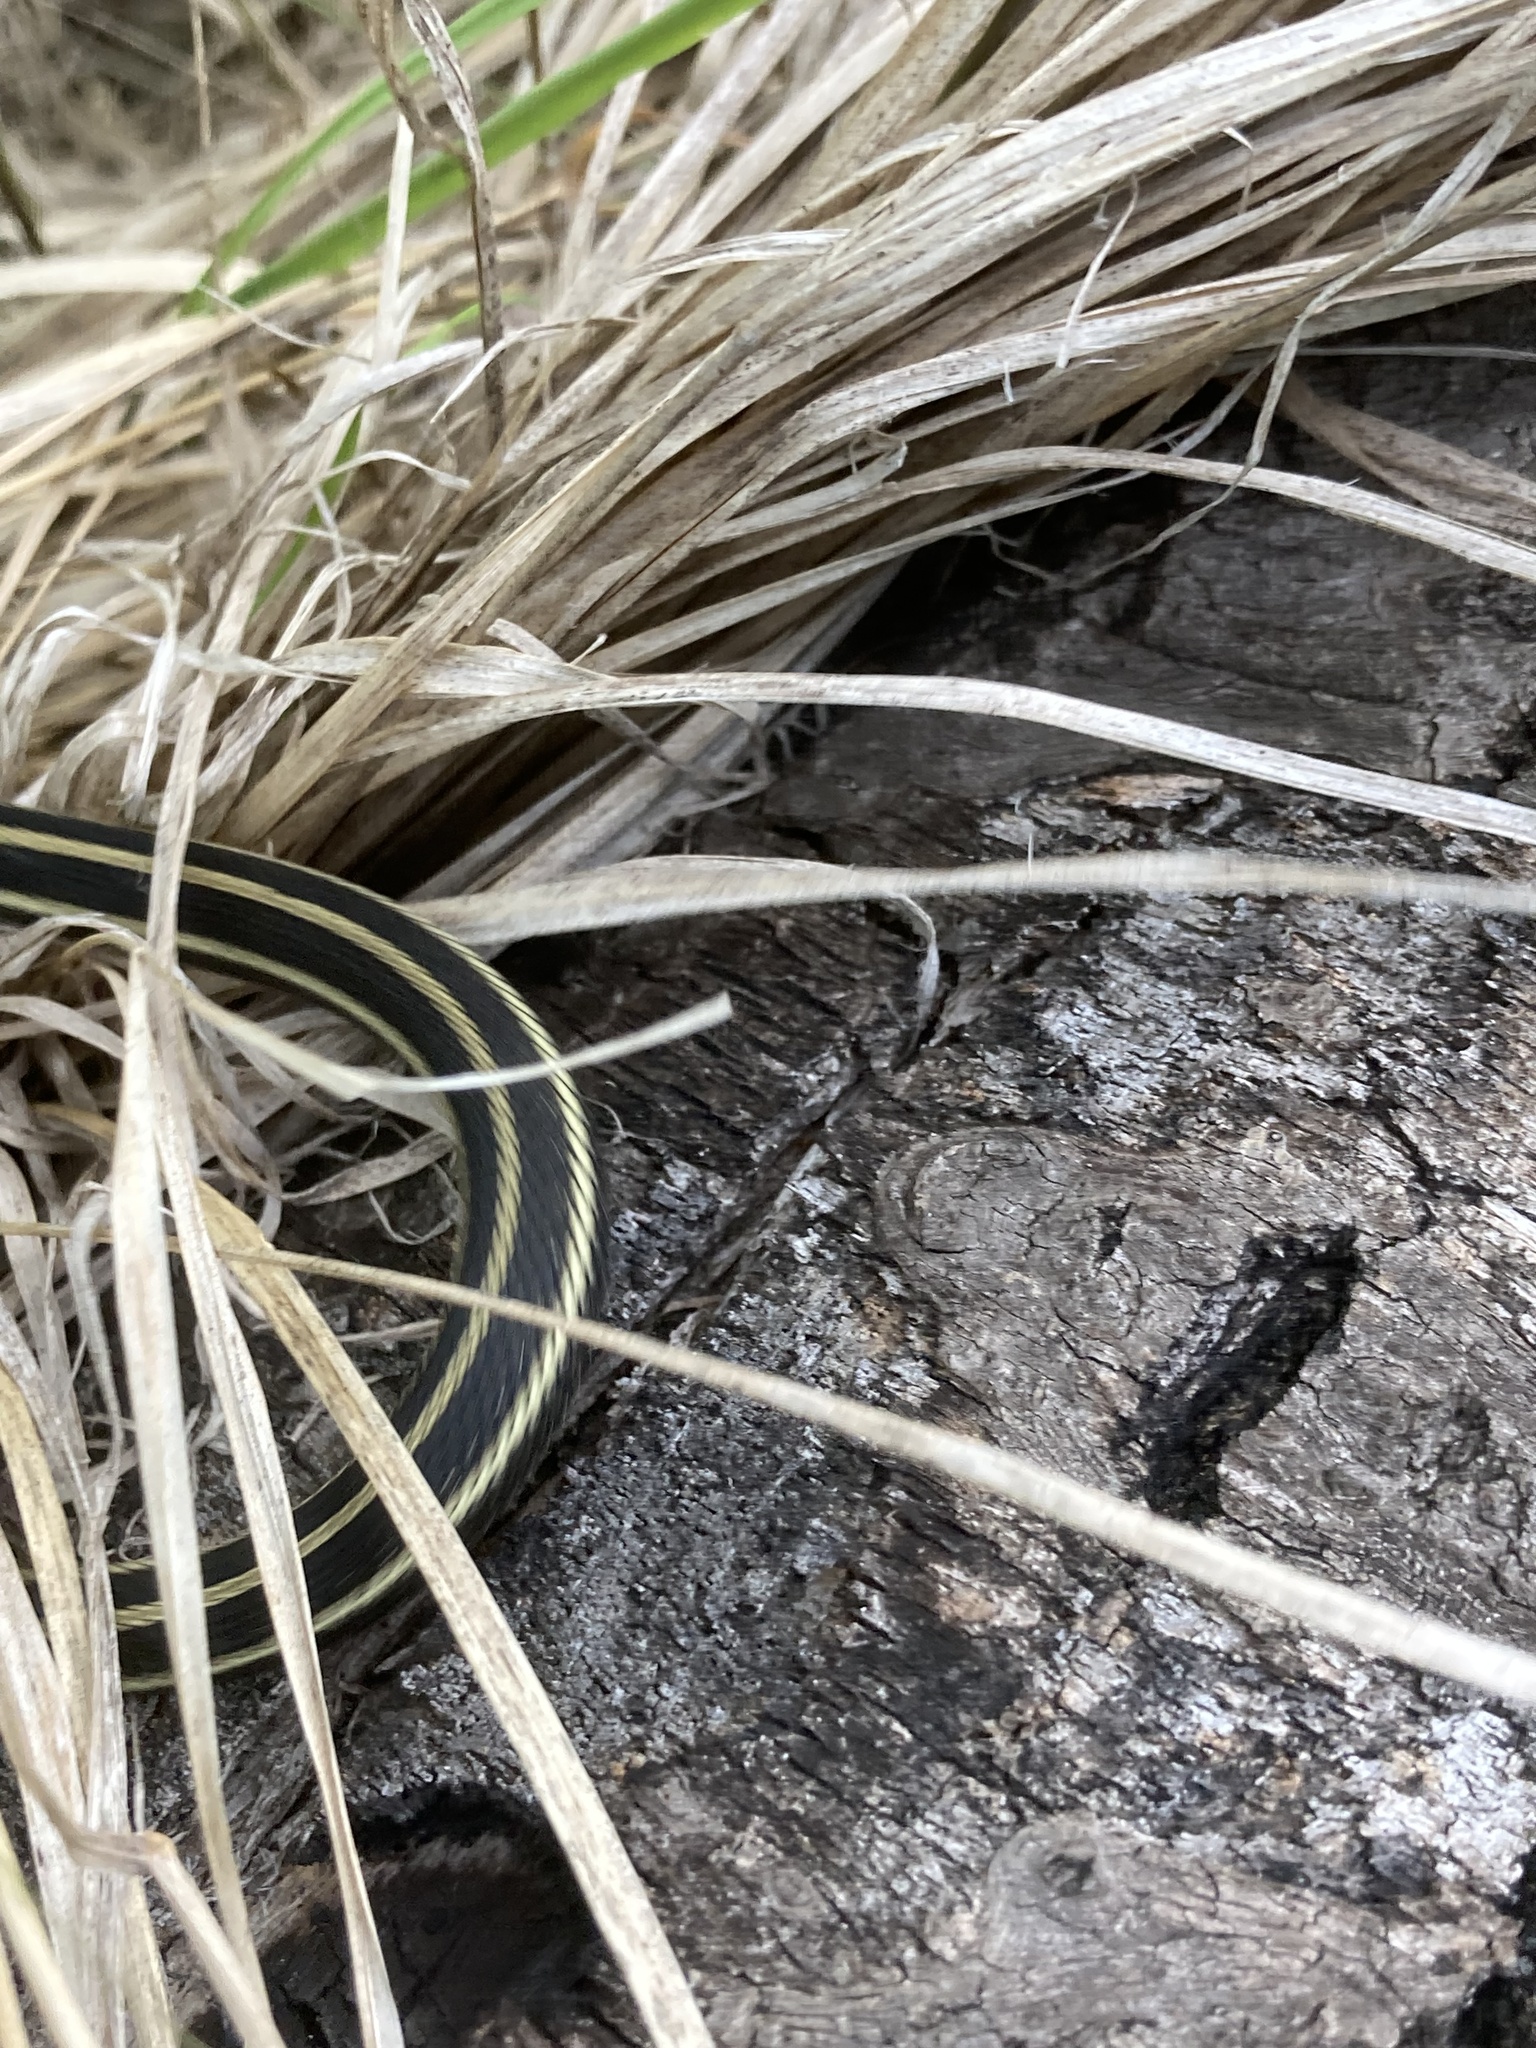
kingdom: Animalia
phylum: Chordata
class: Squamata
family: Colubridae
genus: Thamnophis
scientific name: Thamnophis radix
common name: Plains garter snake
